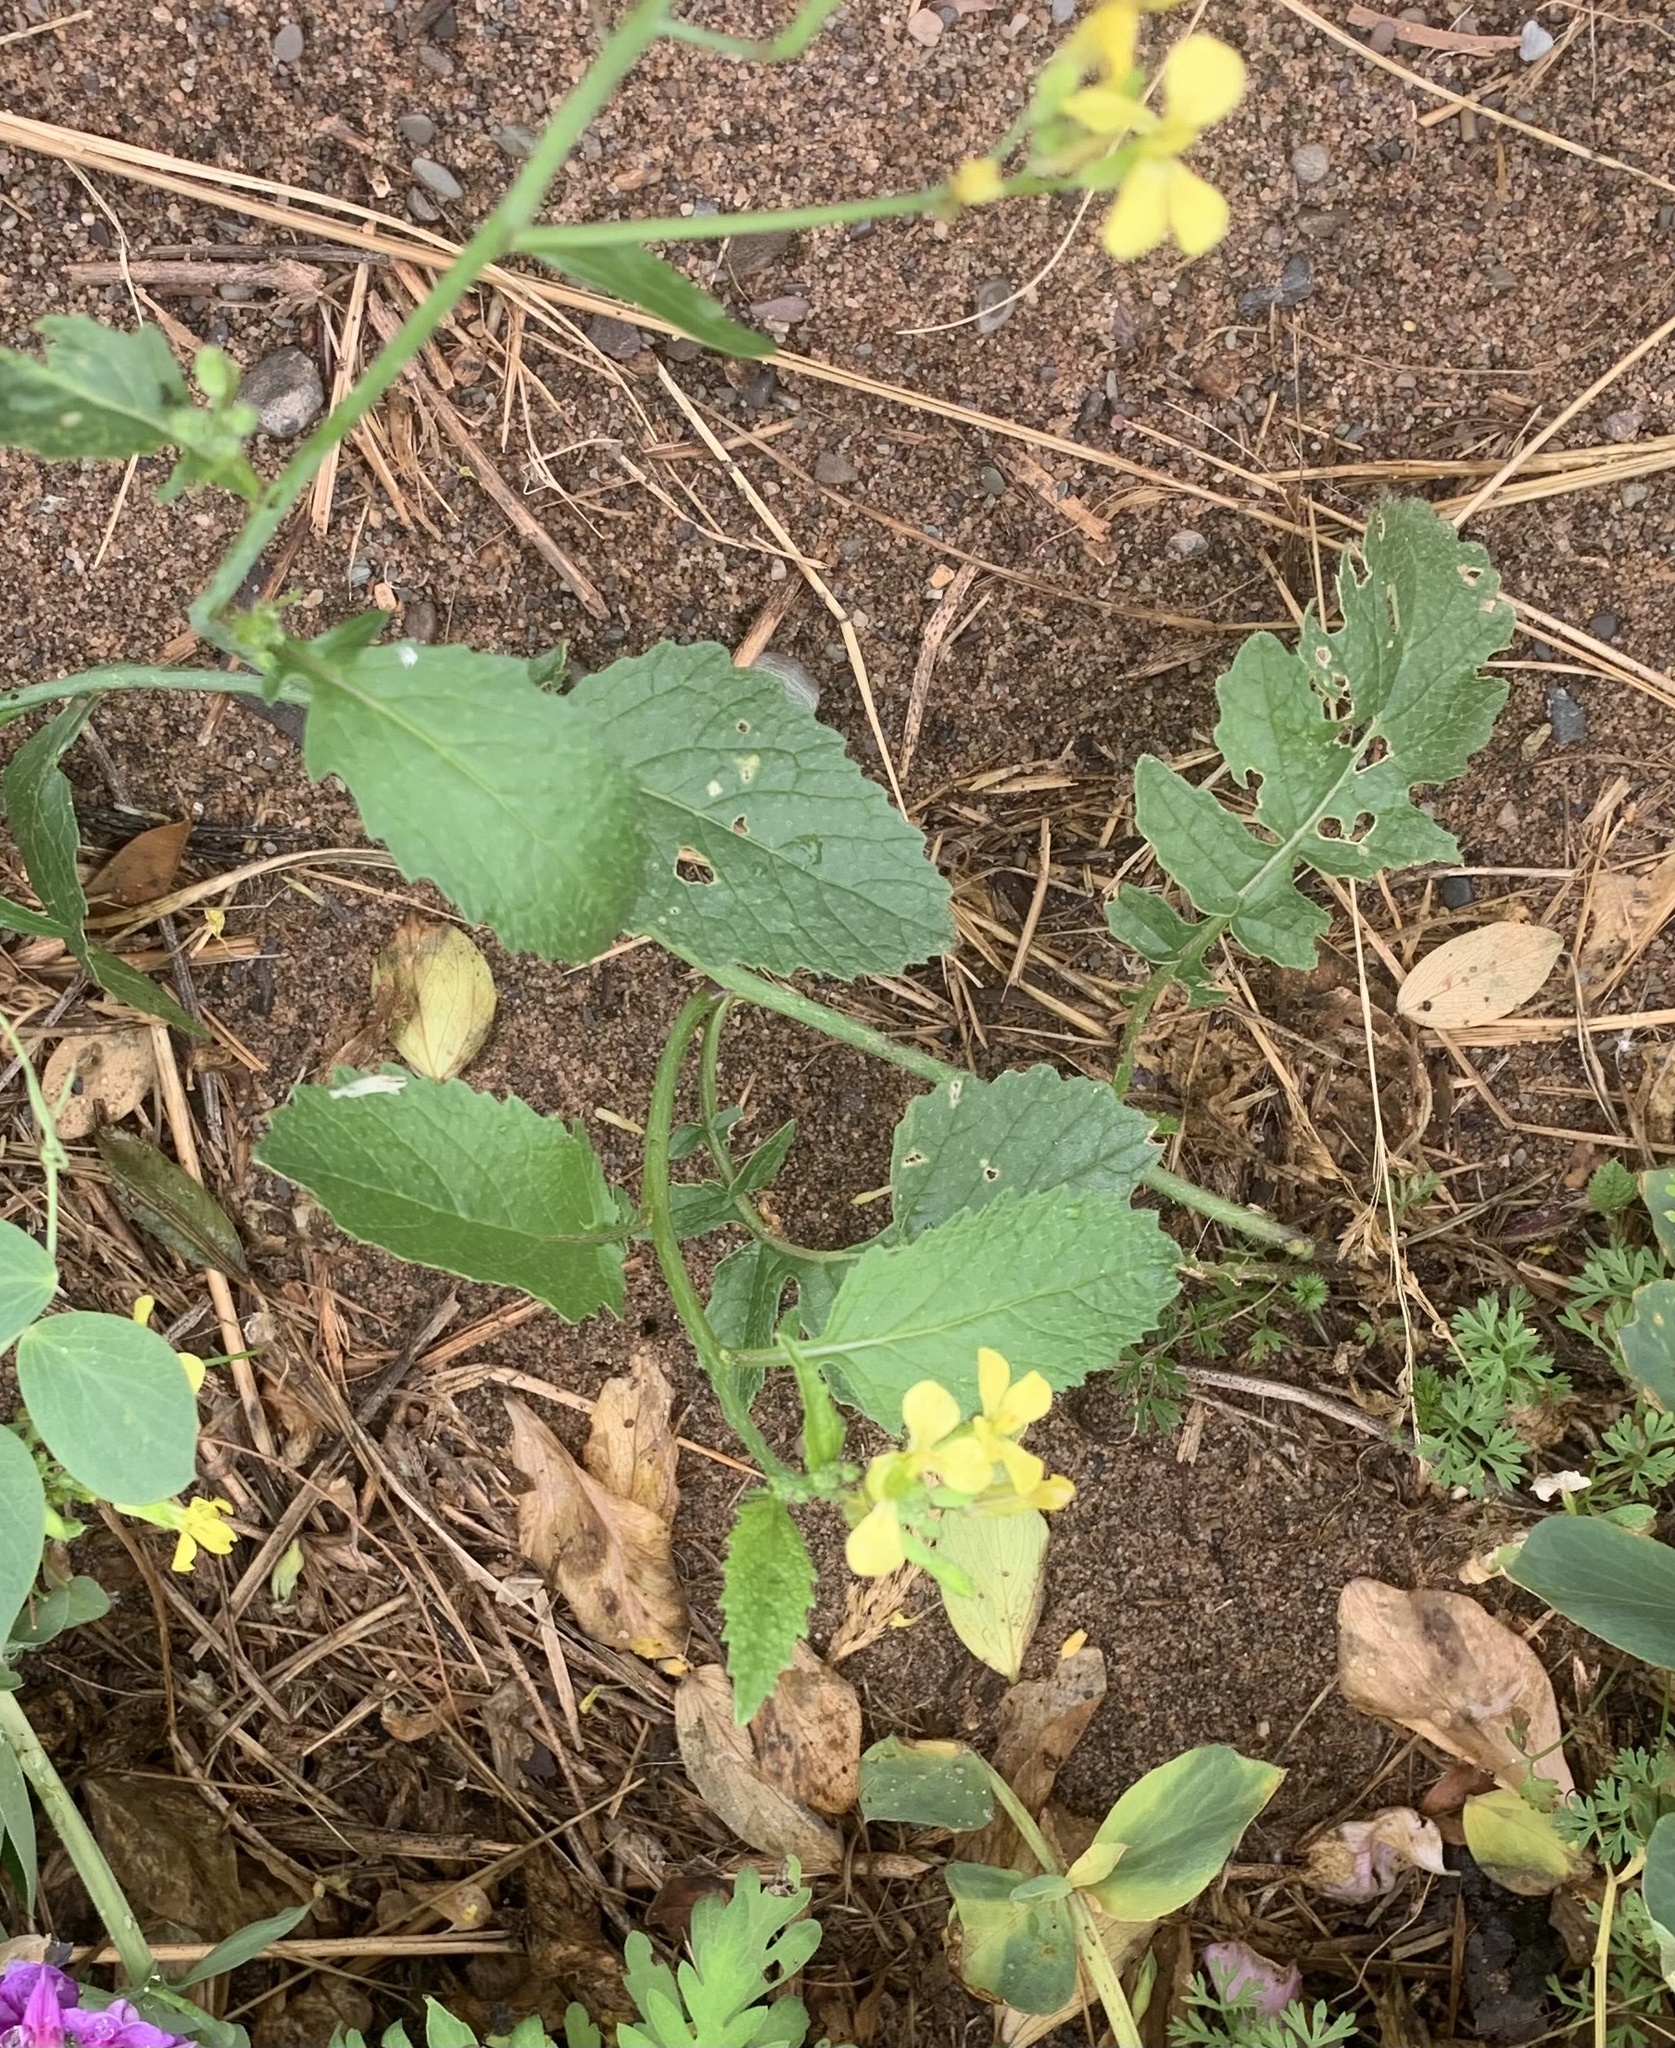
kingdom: Plantae
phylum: Tracheophyta
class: Magnoliopsida
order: Brassicales
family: Brassicaceae
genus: Raphanus
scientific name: Raphanus raphanistrum
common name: Wild radish
